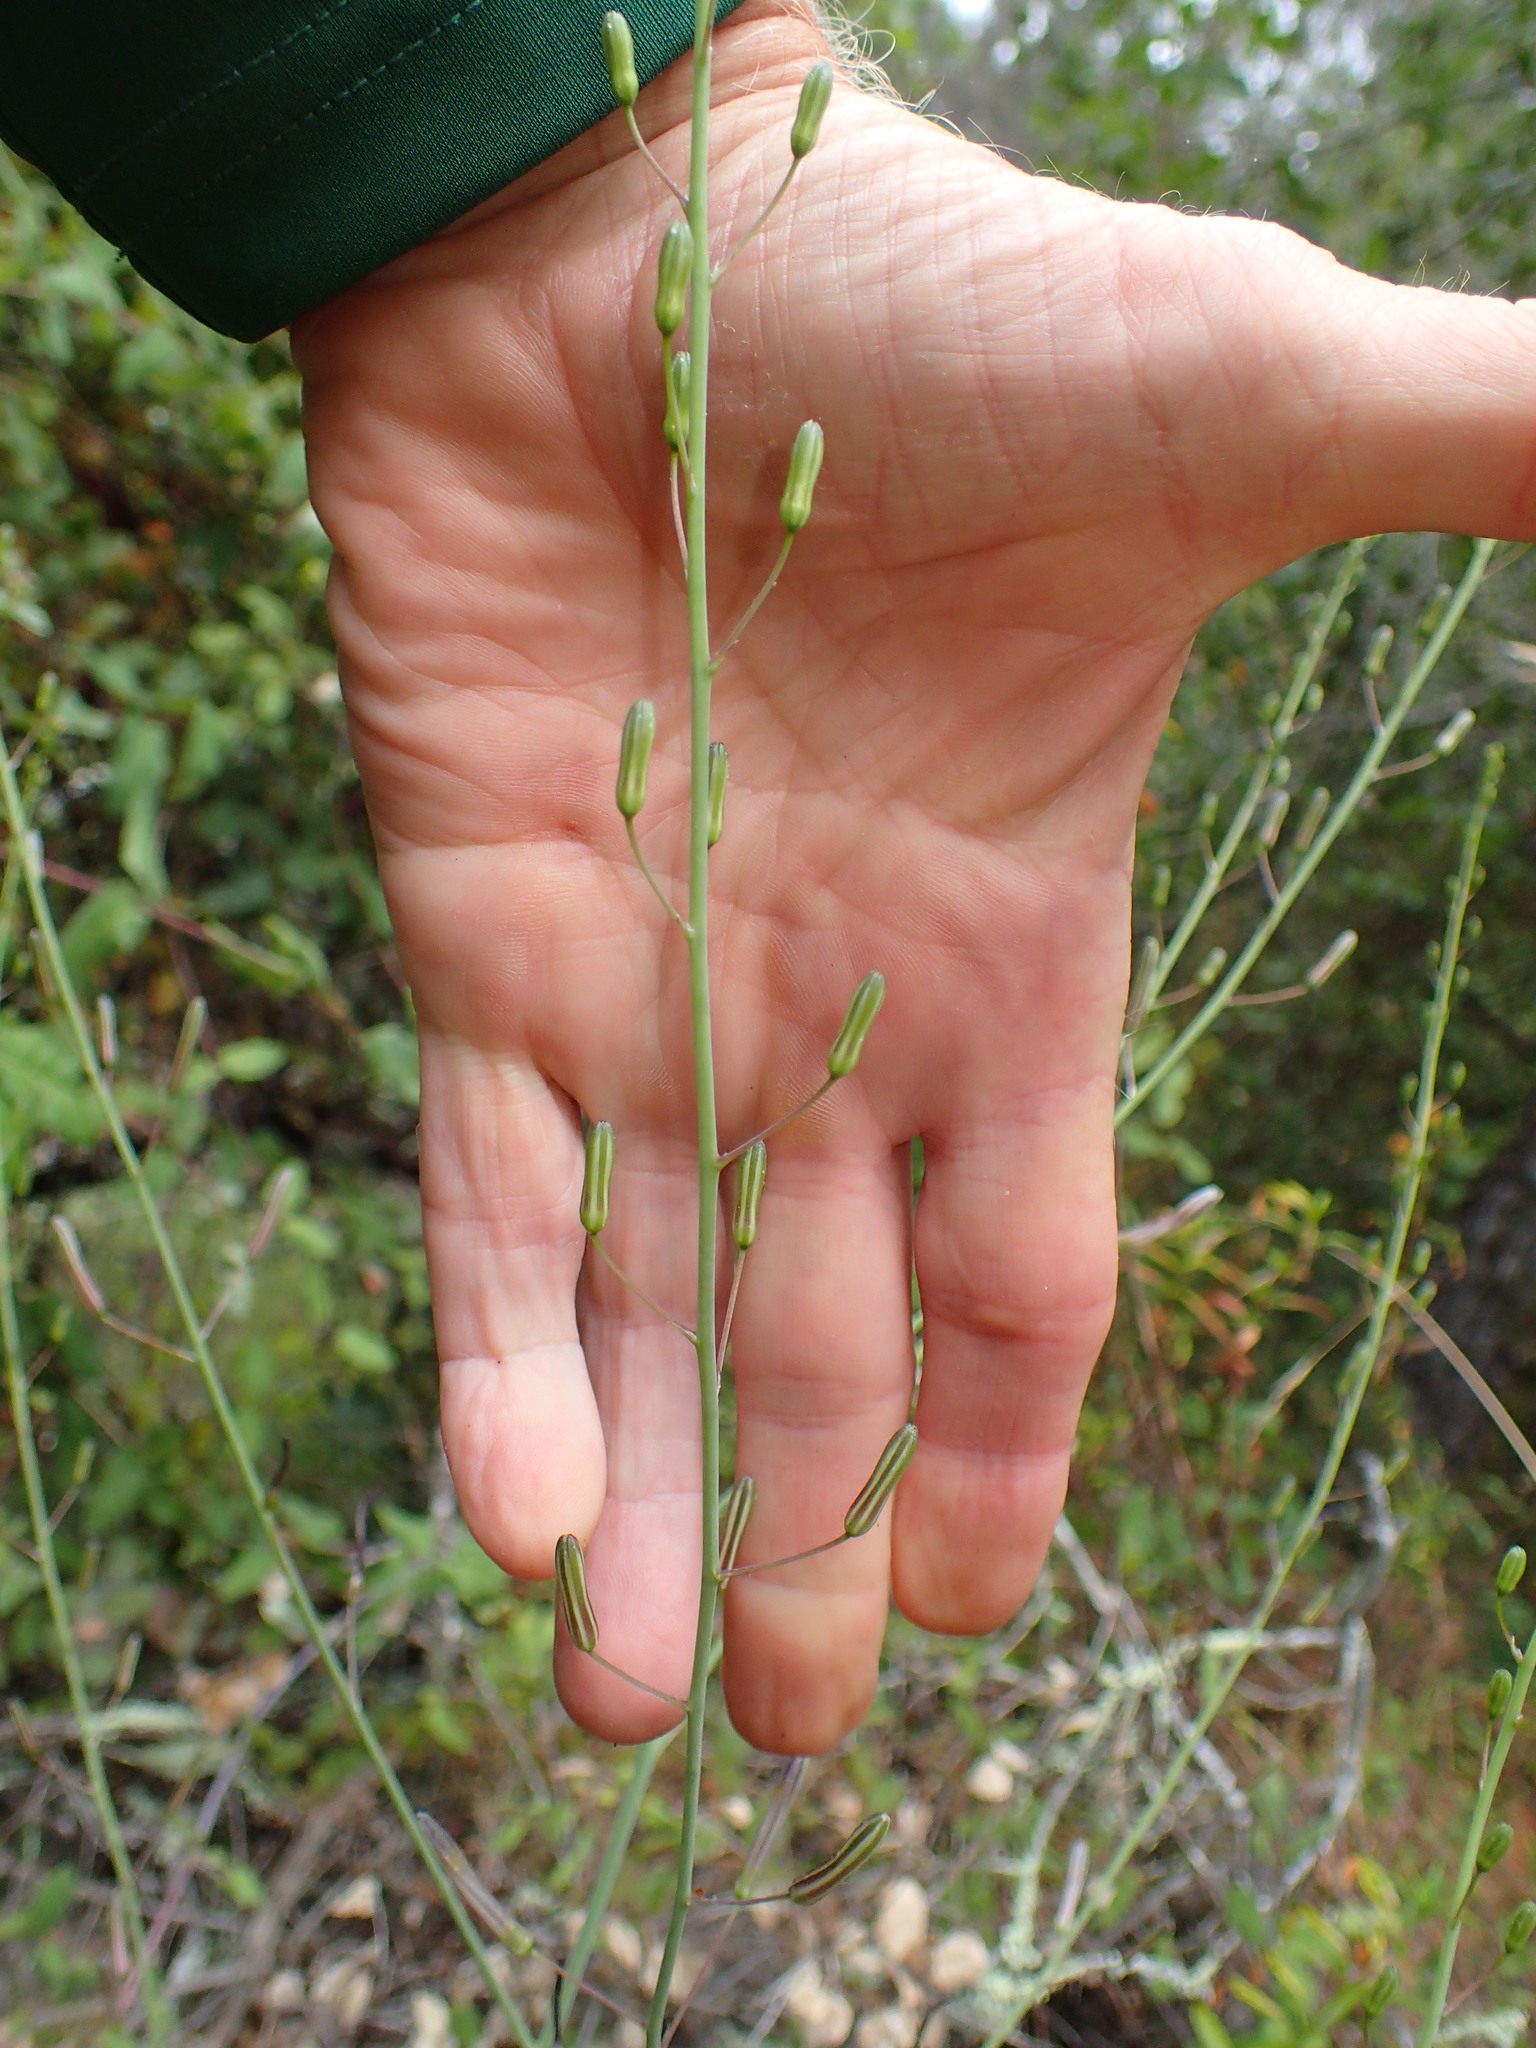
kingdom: Plantae
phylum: Tracheophyta
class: Liliopsida
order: Asparagales
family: Asparagaceae
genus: Chlorogalum
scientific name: Chlorogalum pomeridianum
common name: Amole
